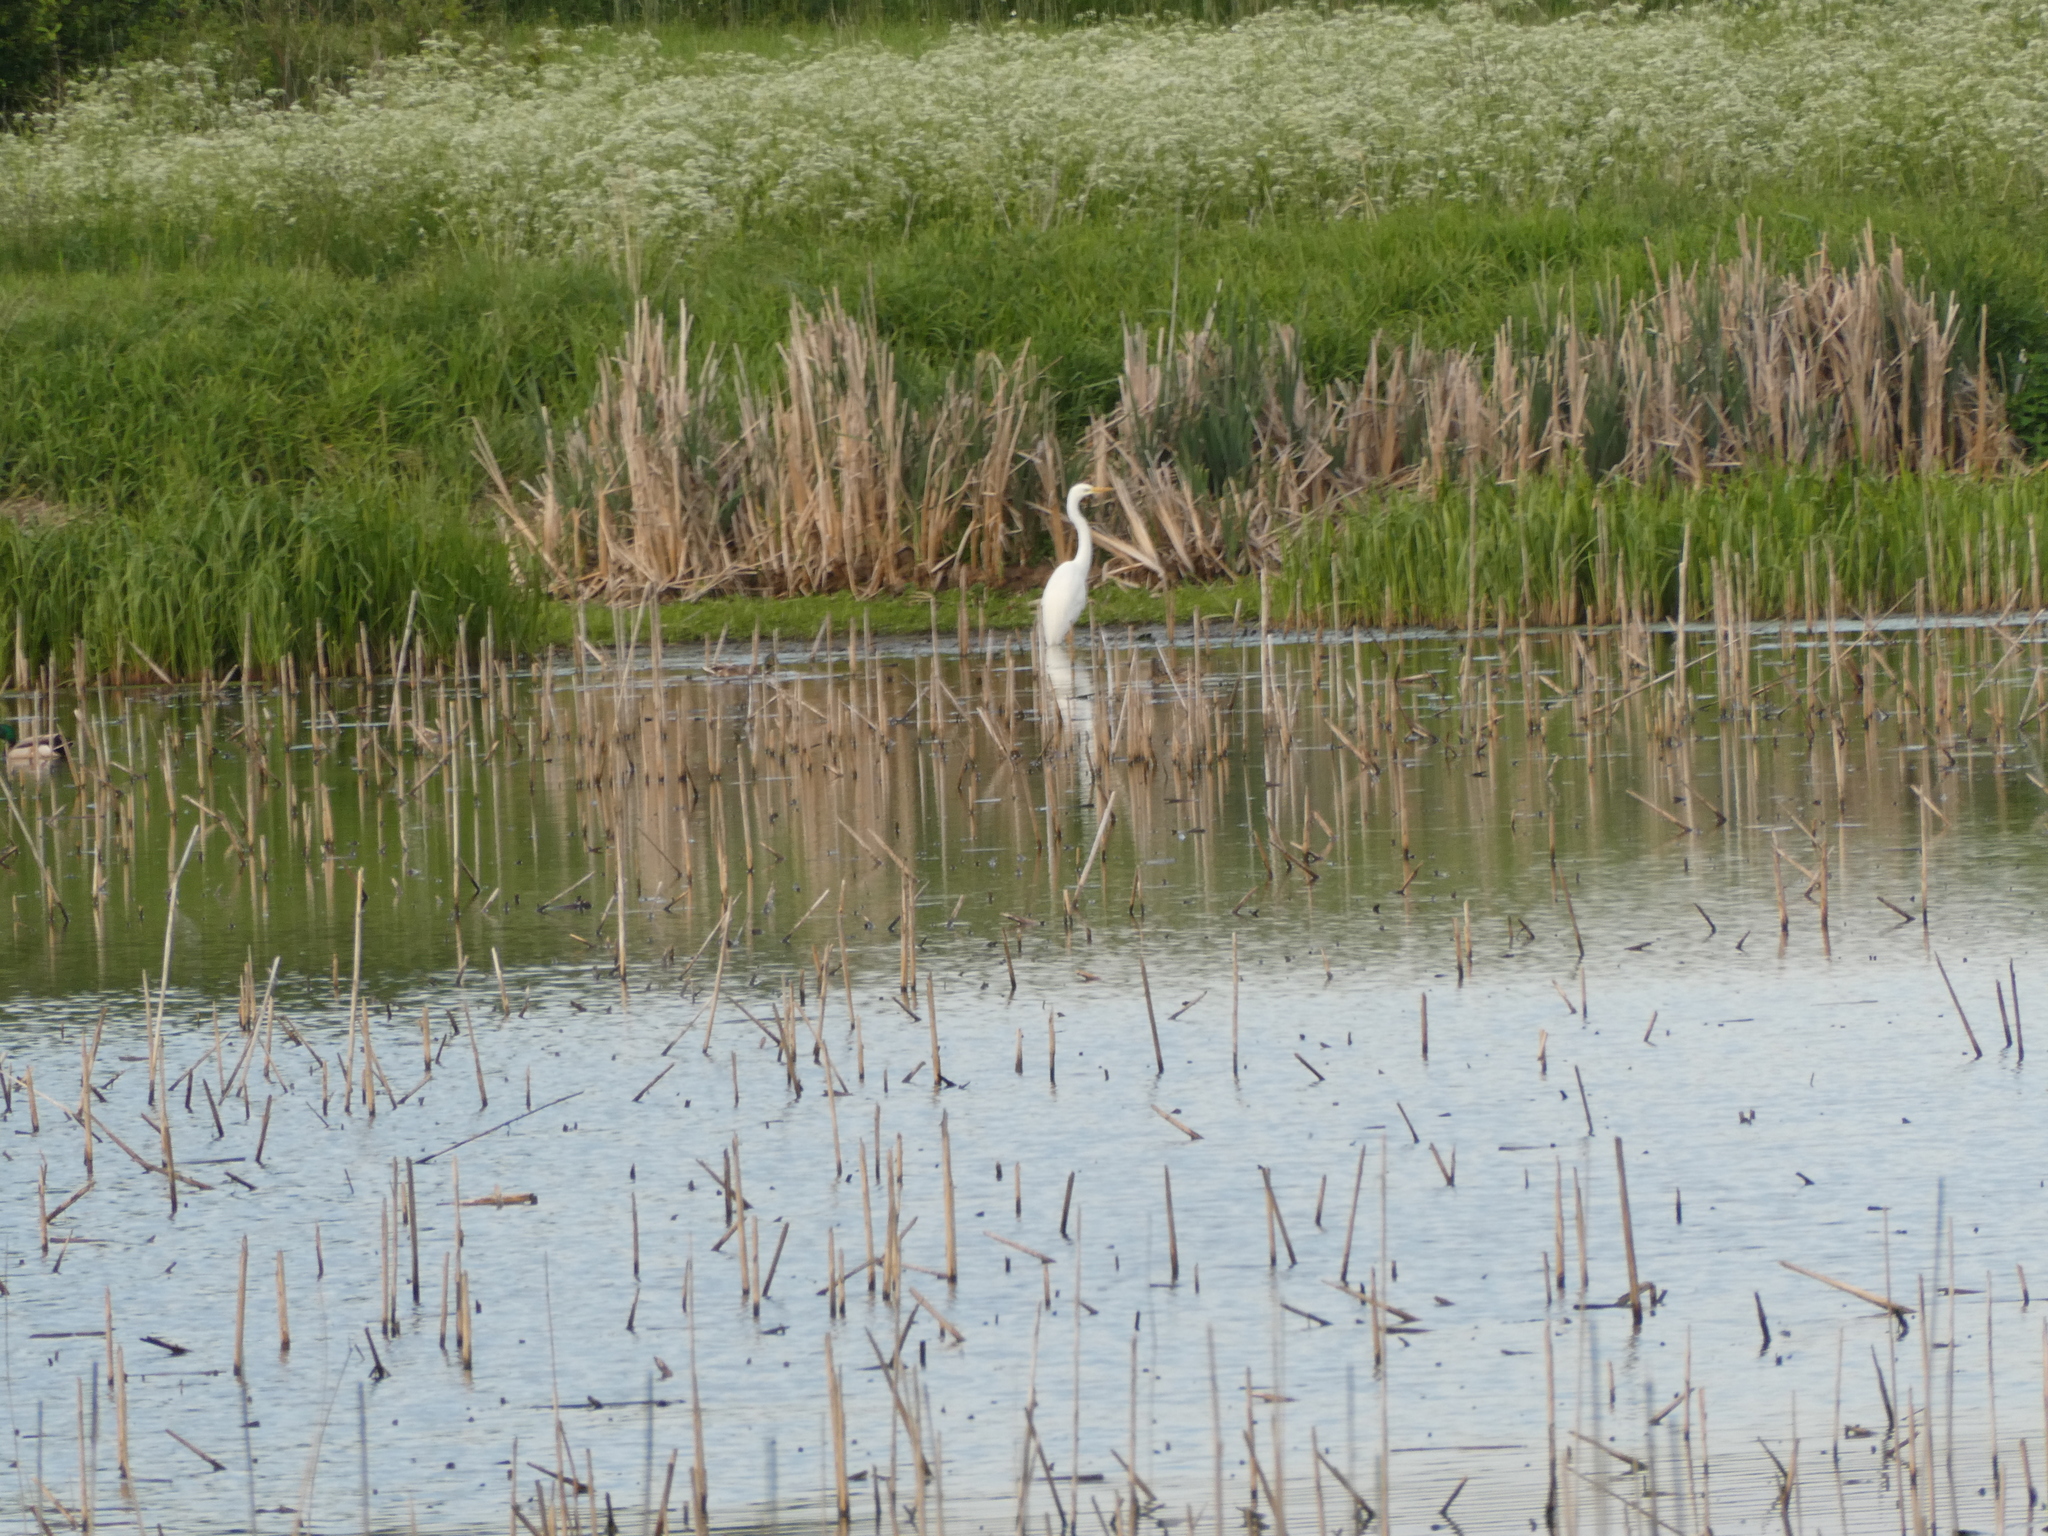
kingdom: Animalia
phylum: Chordata
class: Aves
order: Pelecaniformes
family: Ardeidae
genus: Ardea
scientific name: Ardea alba
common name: Great egret
